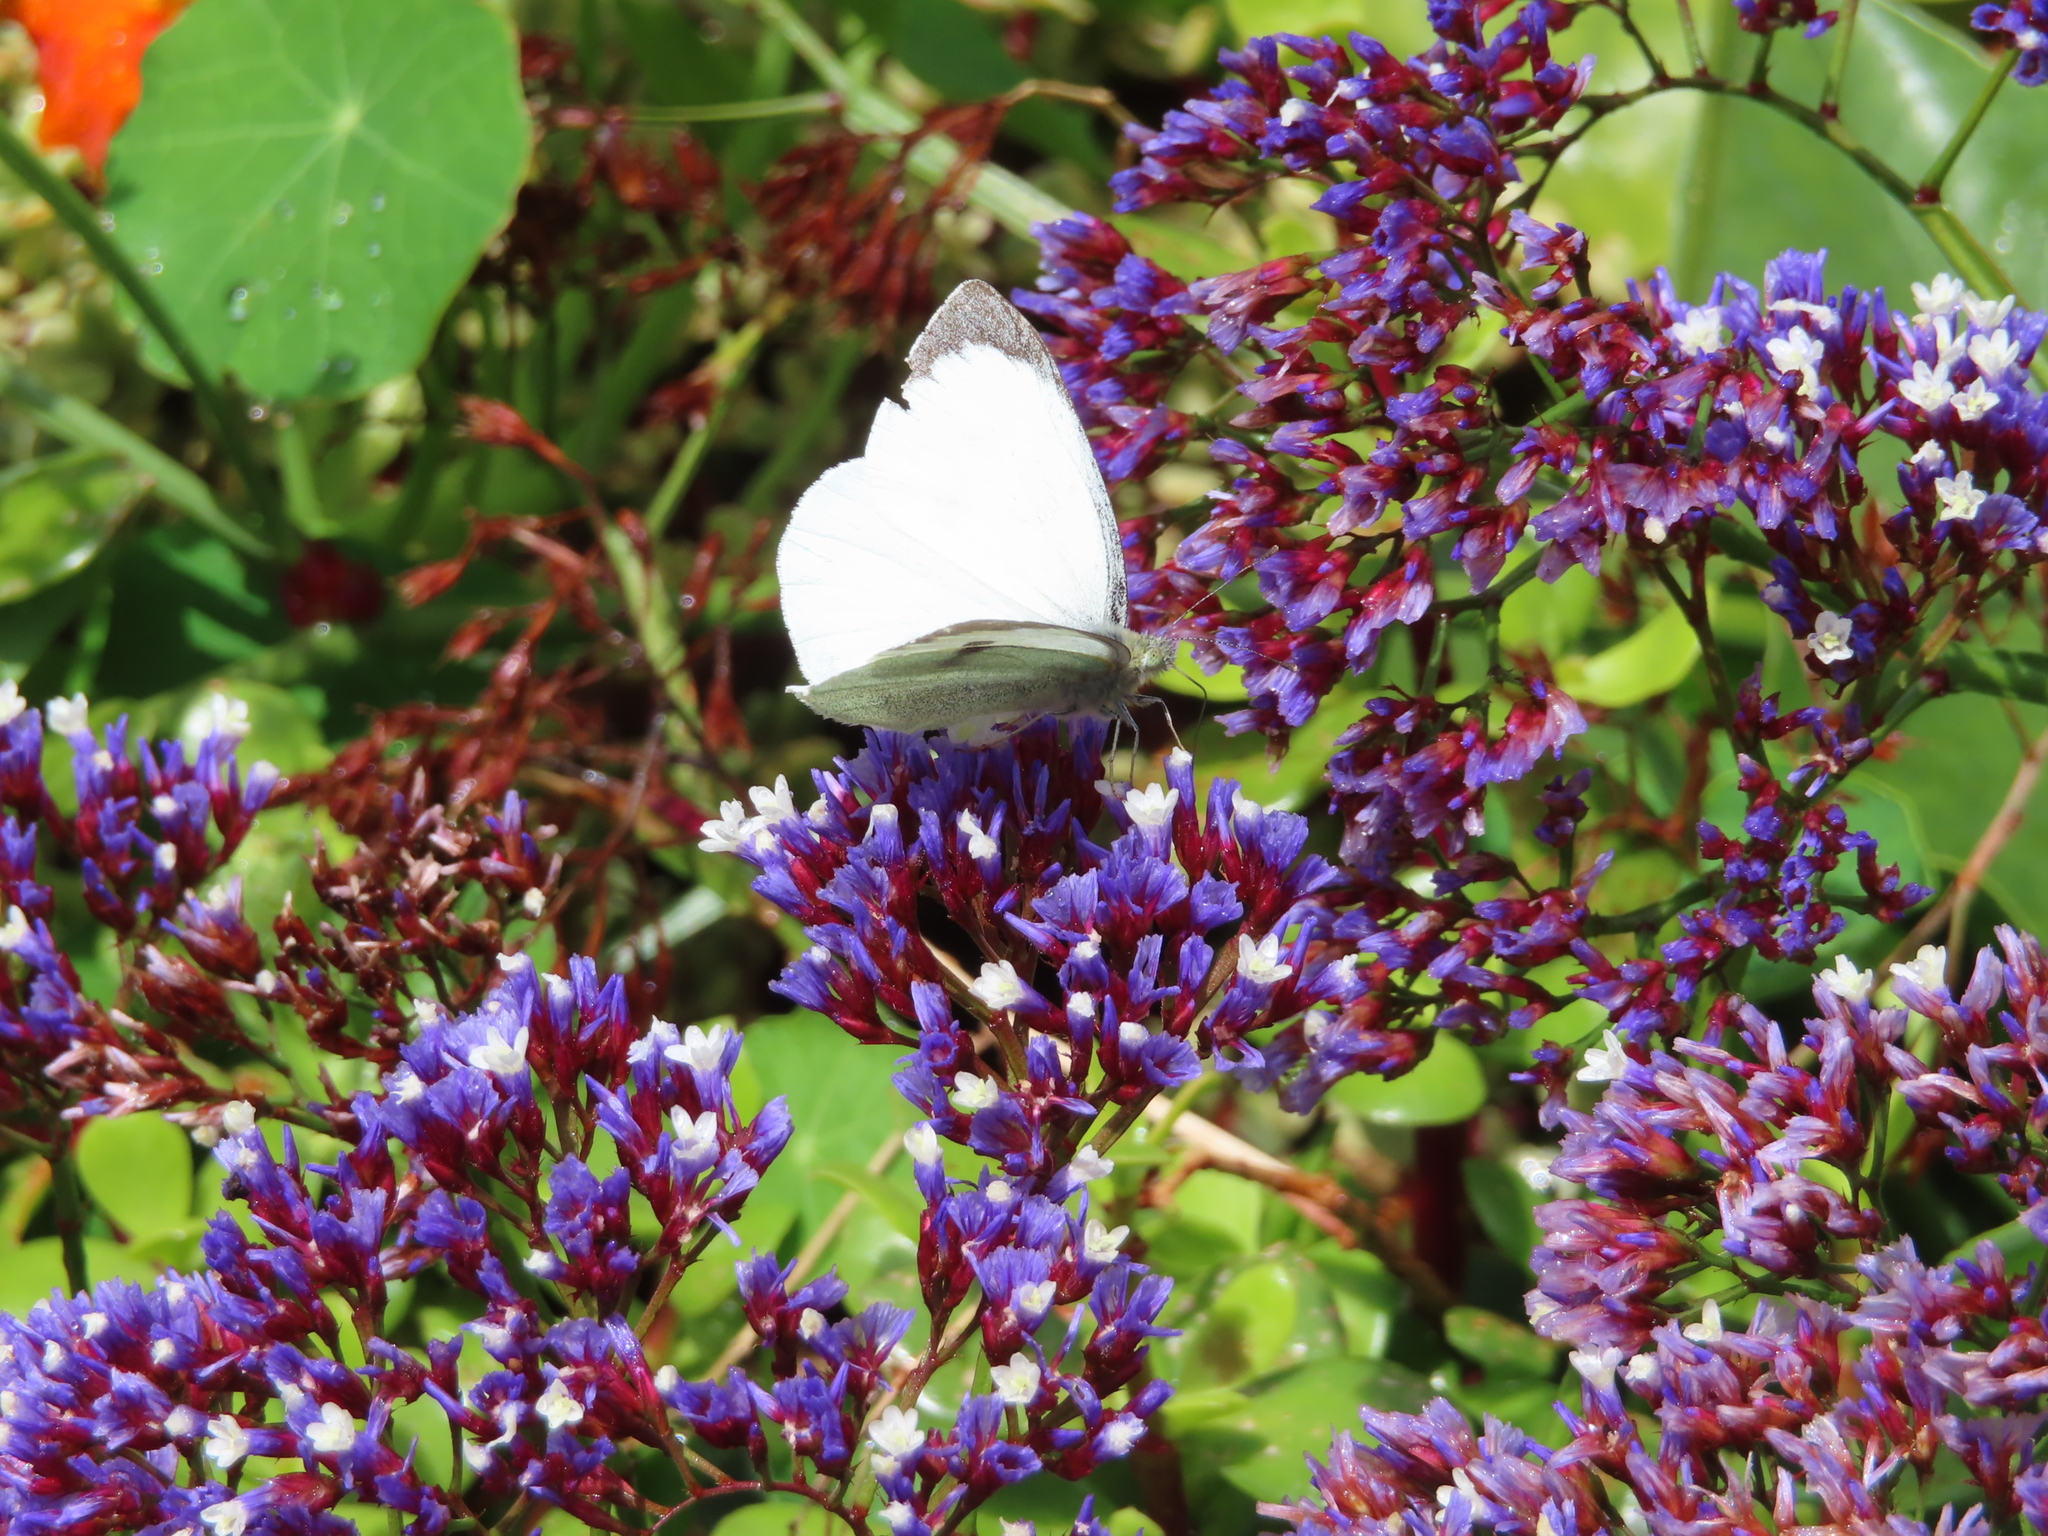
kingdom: Animalia
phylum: Arthropoda
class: Insecta
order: Lepidoptera
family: Pieridae
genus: Pieris
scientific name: Pieris brassicae
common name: Large white
